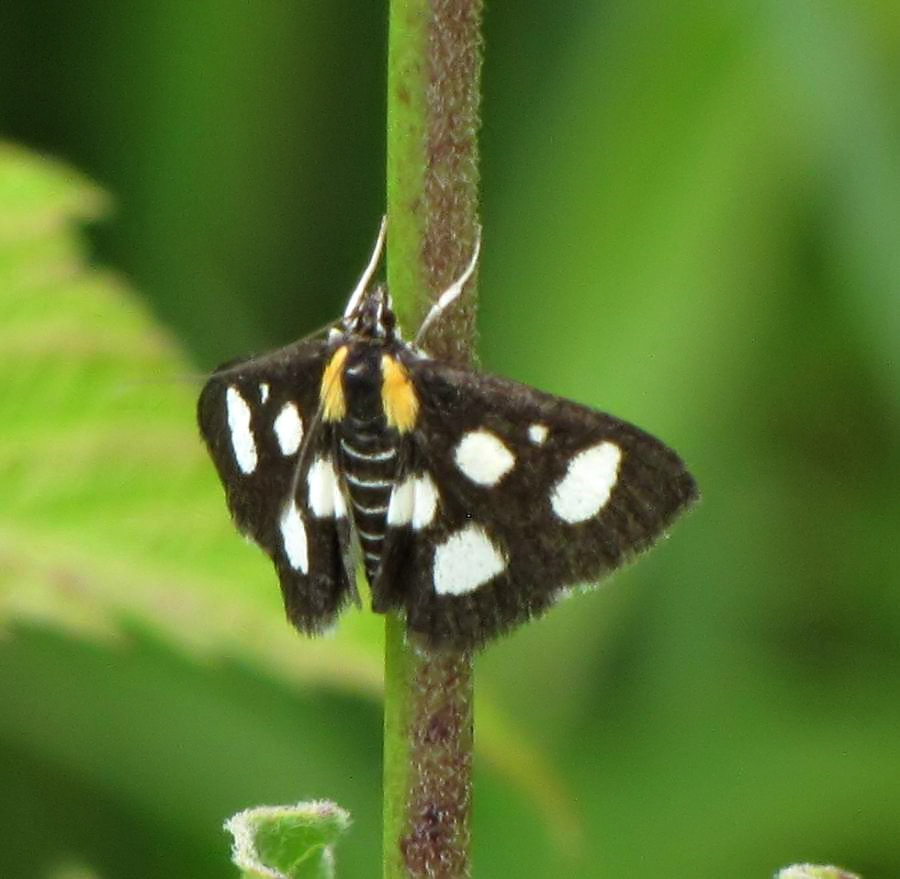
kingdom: Animalia
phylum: Arthropoda
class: Insecta
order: Lepidoptera
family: Crambidae
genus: Anania
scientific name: Anania funebris
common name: White-spotted sable moth
